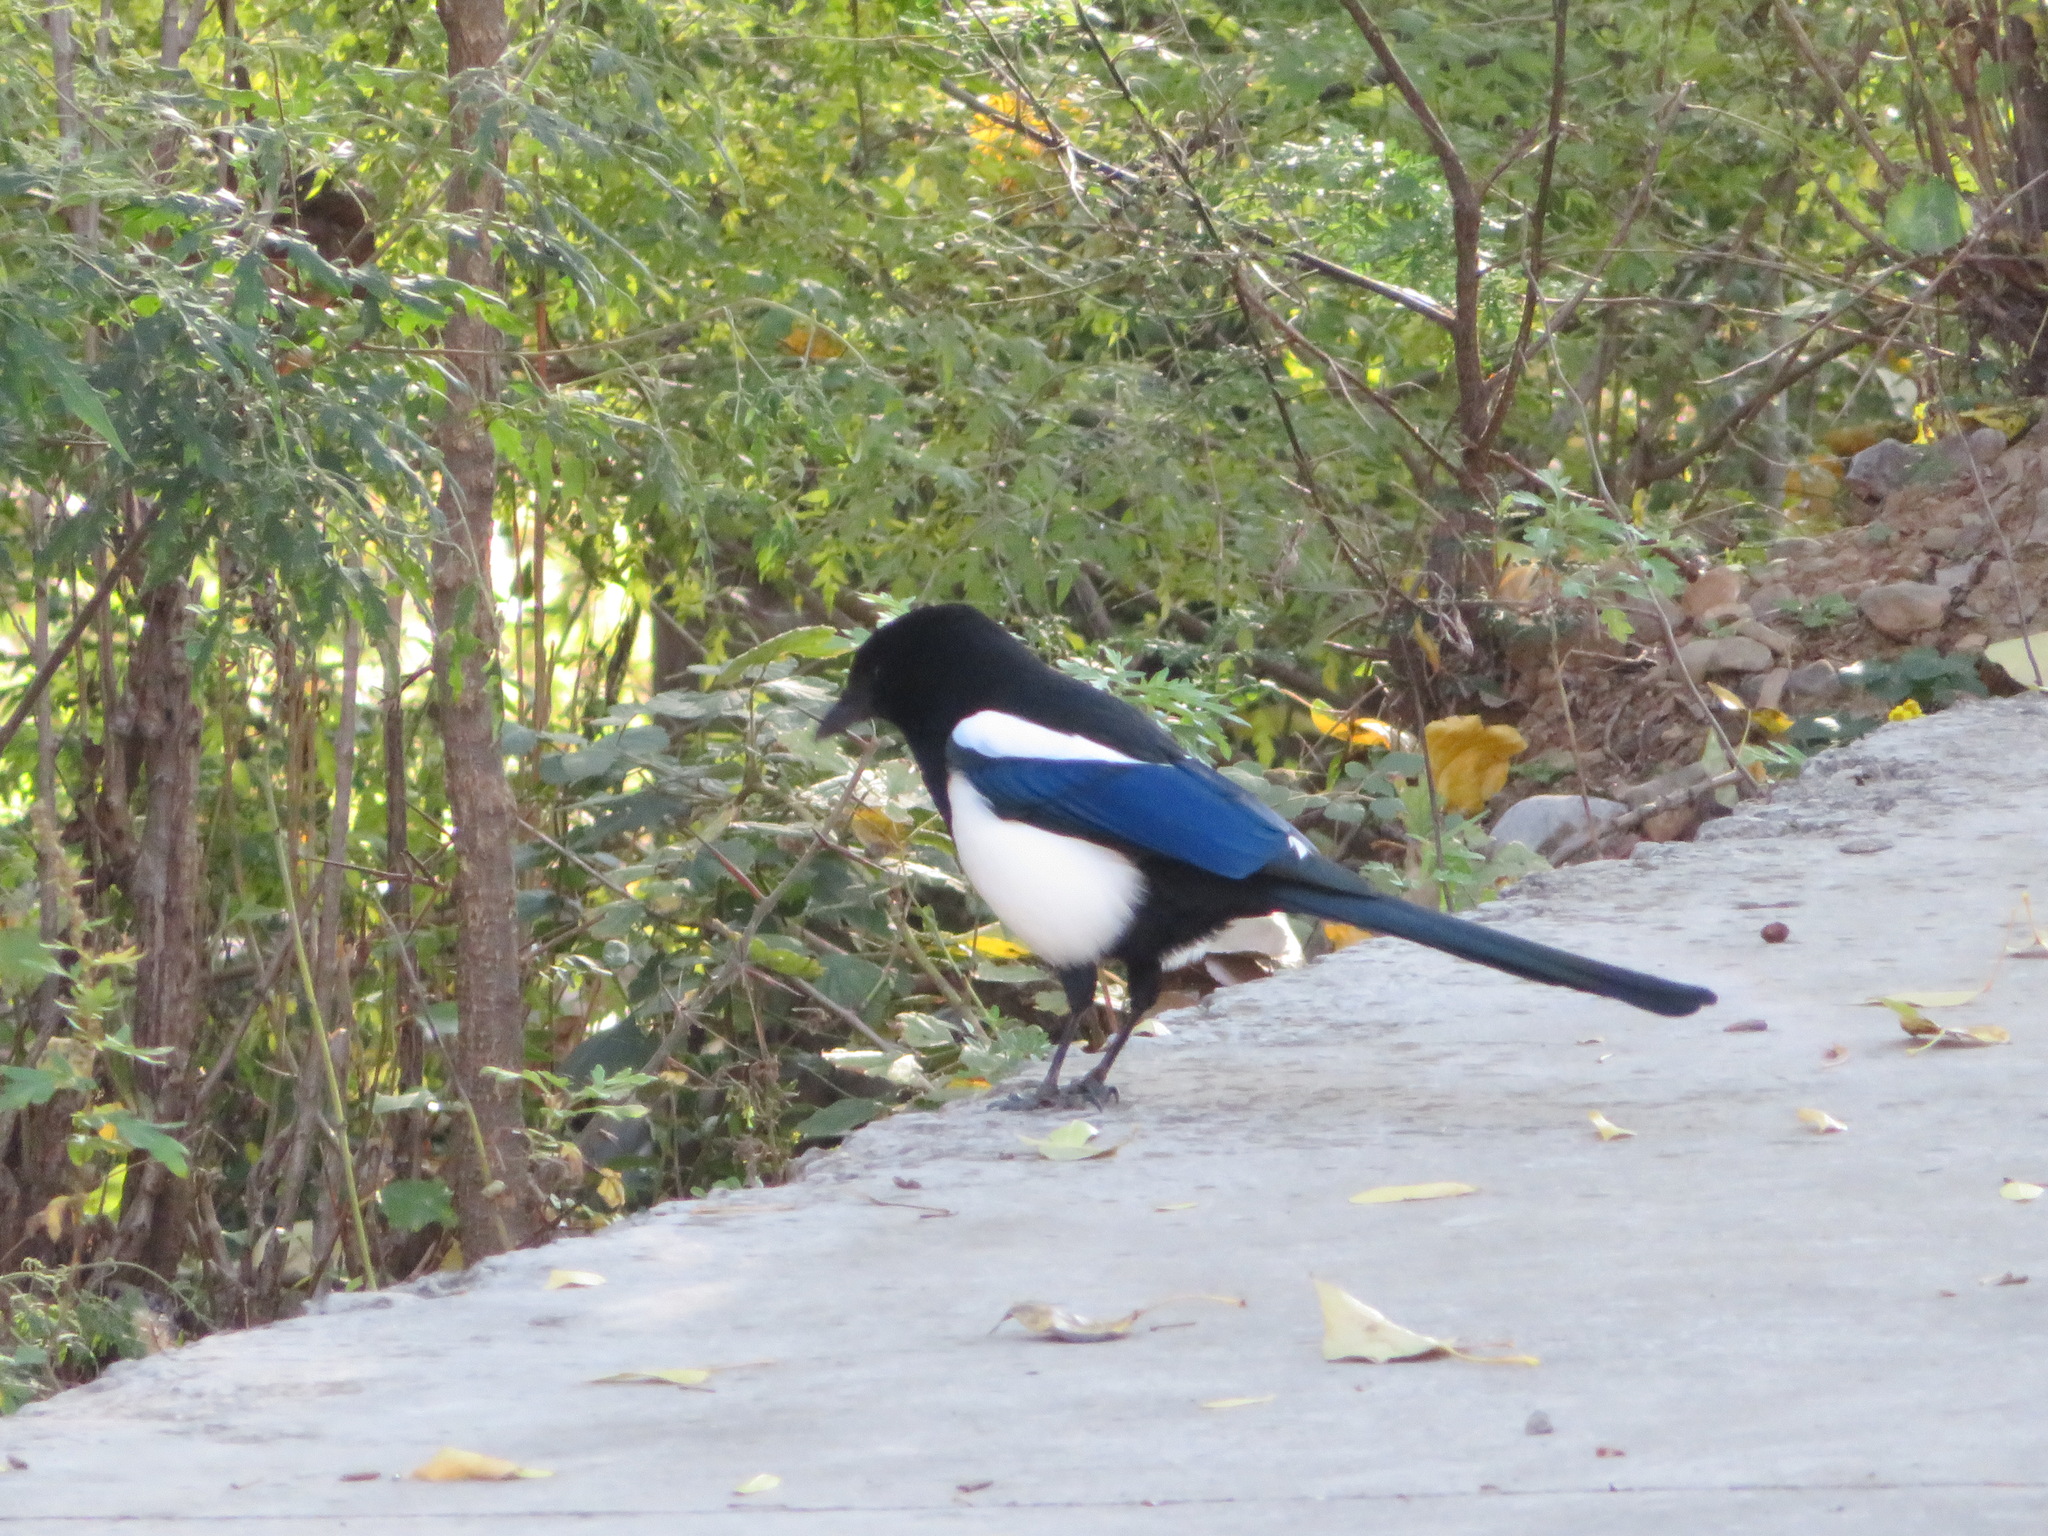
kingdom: Animalia
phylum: Chordata
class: Aves
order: Passeriformes
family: Corvidae
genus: Pica
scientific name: Pica serica
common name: Oriental magpie
